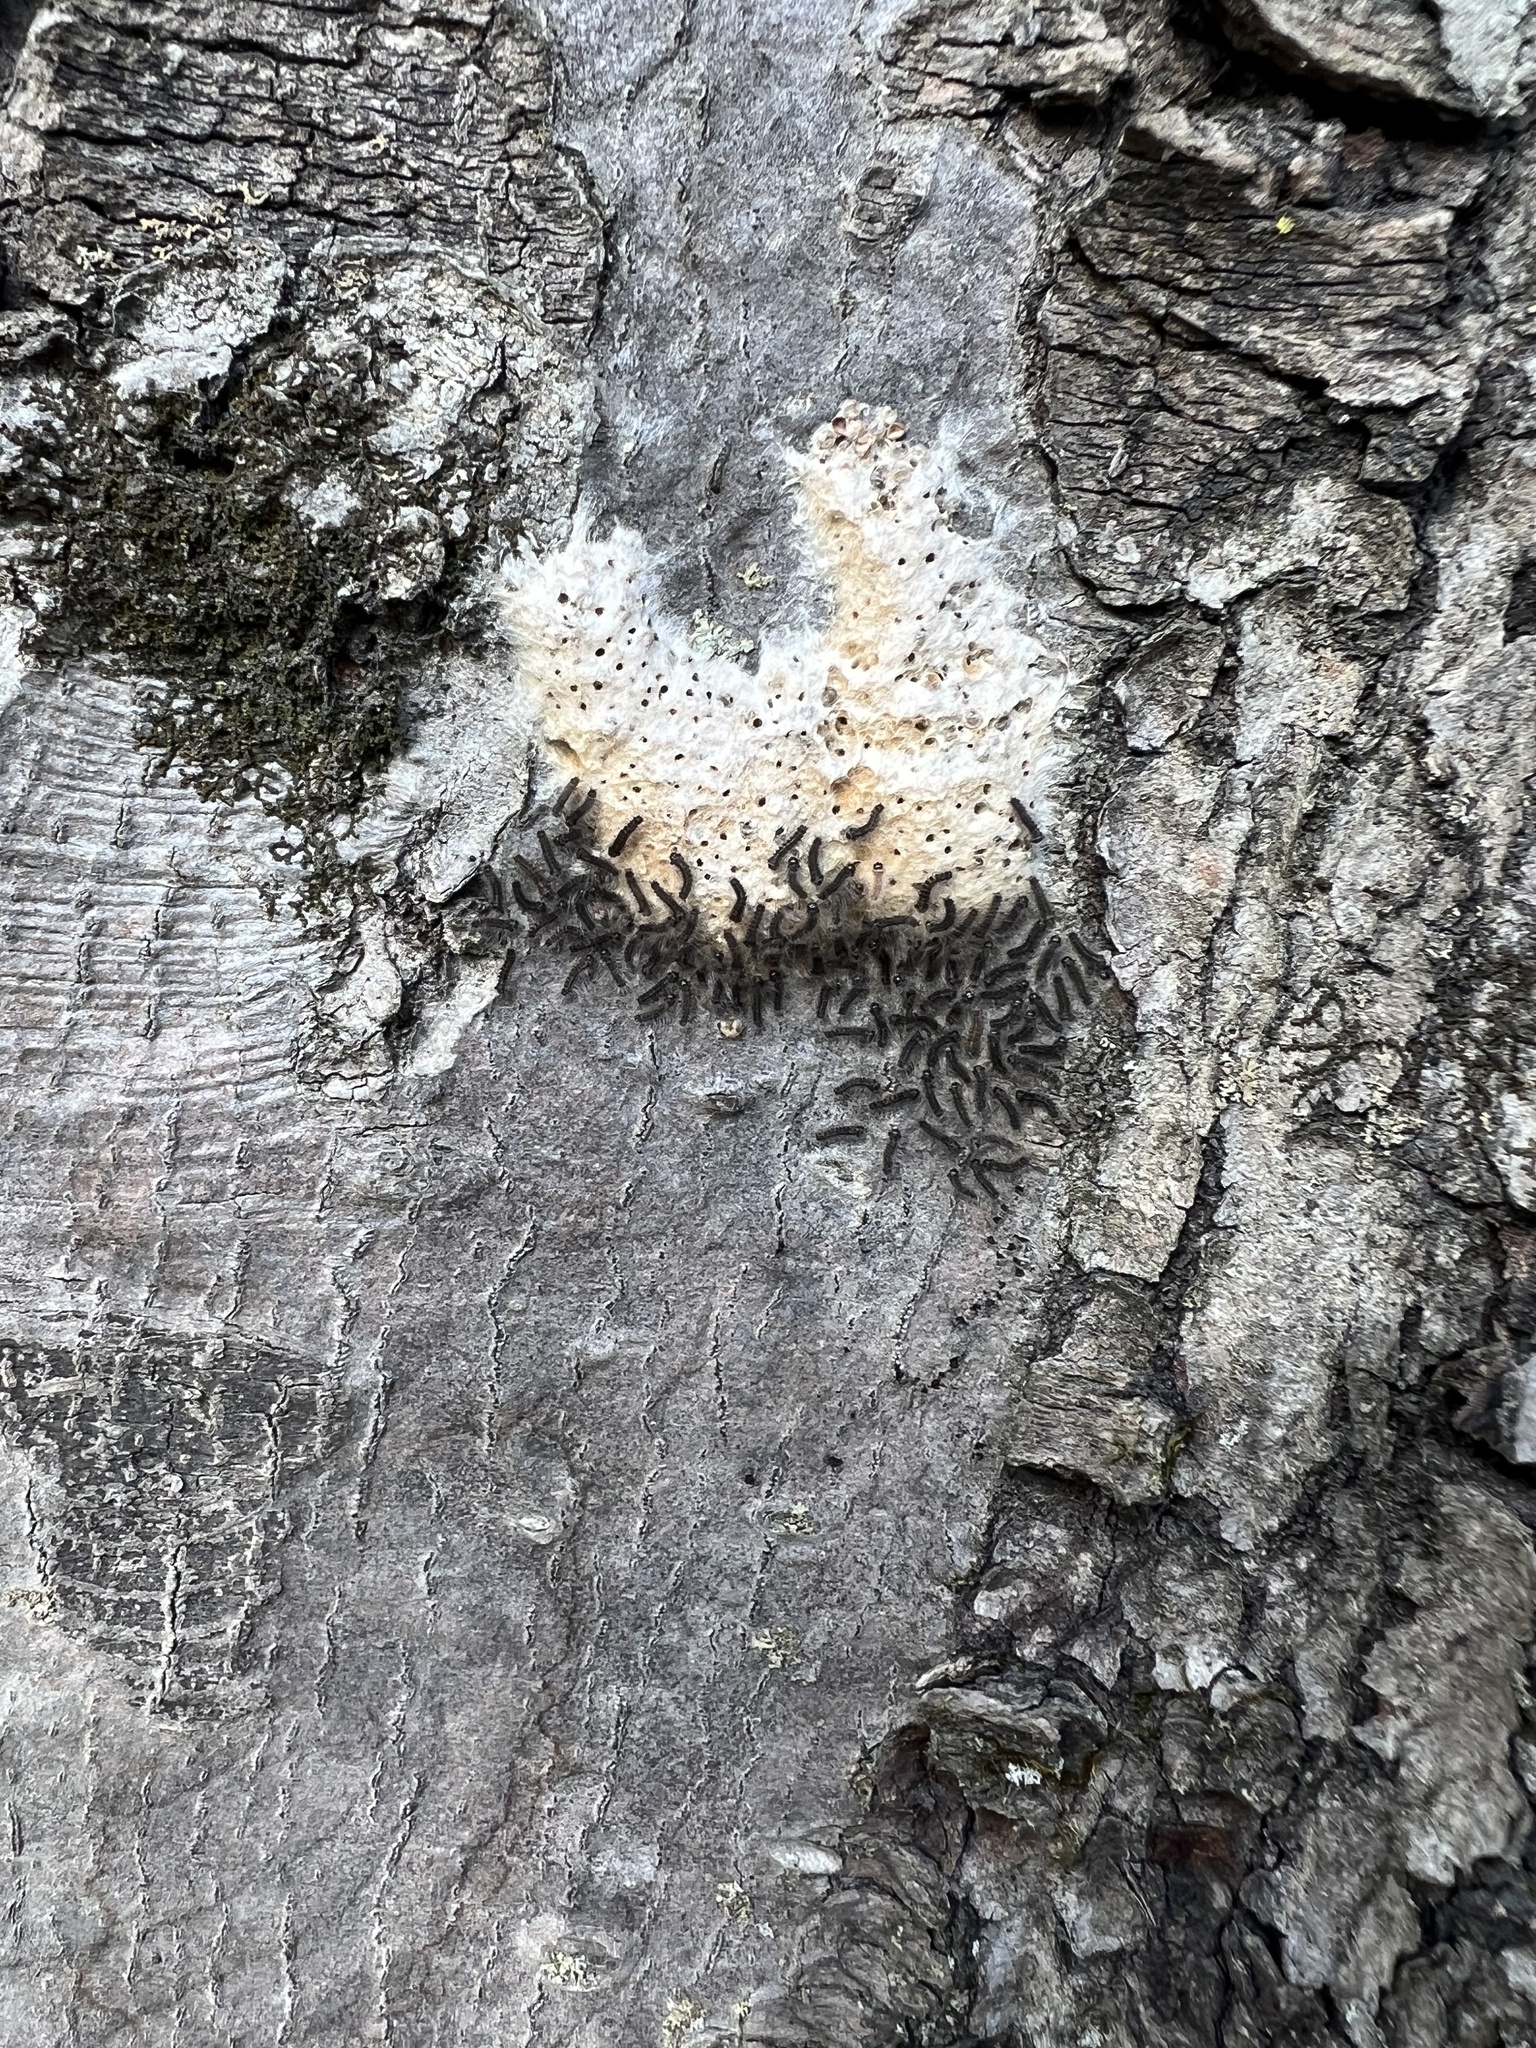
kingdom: Animalia
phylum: Arthropoda
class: Insecta
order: Lepidoptera
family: Erebidae
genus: Lymantria
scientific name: Lymantria dispar
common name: Gypsy moth
